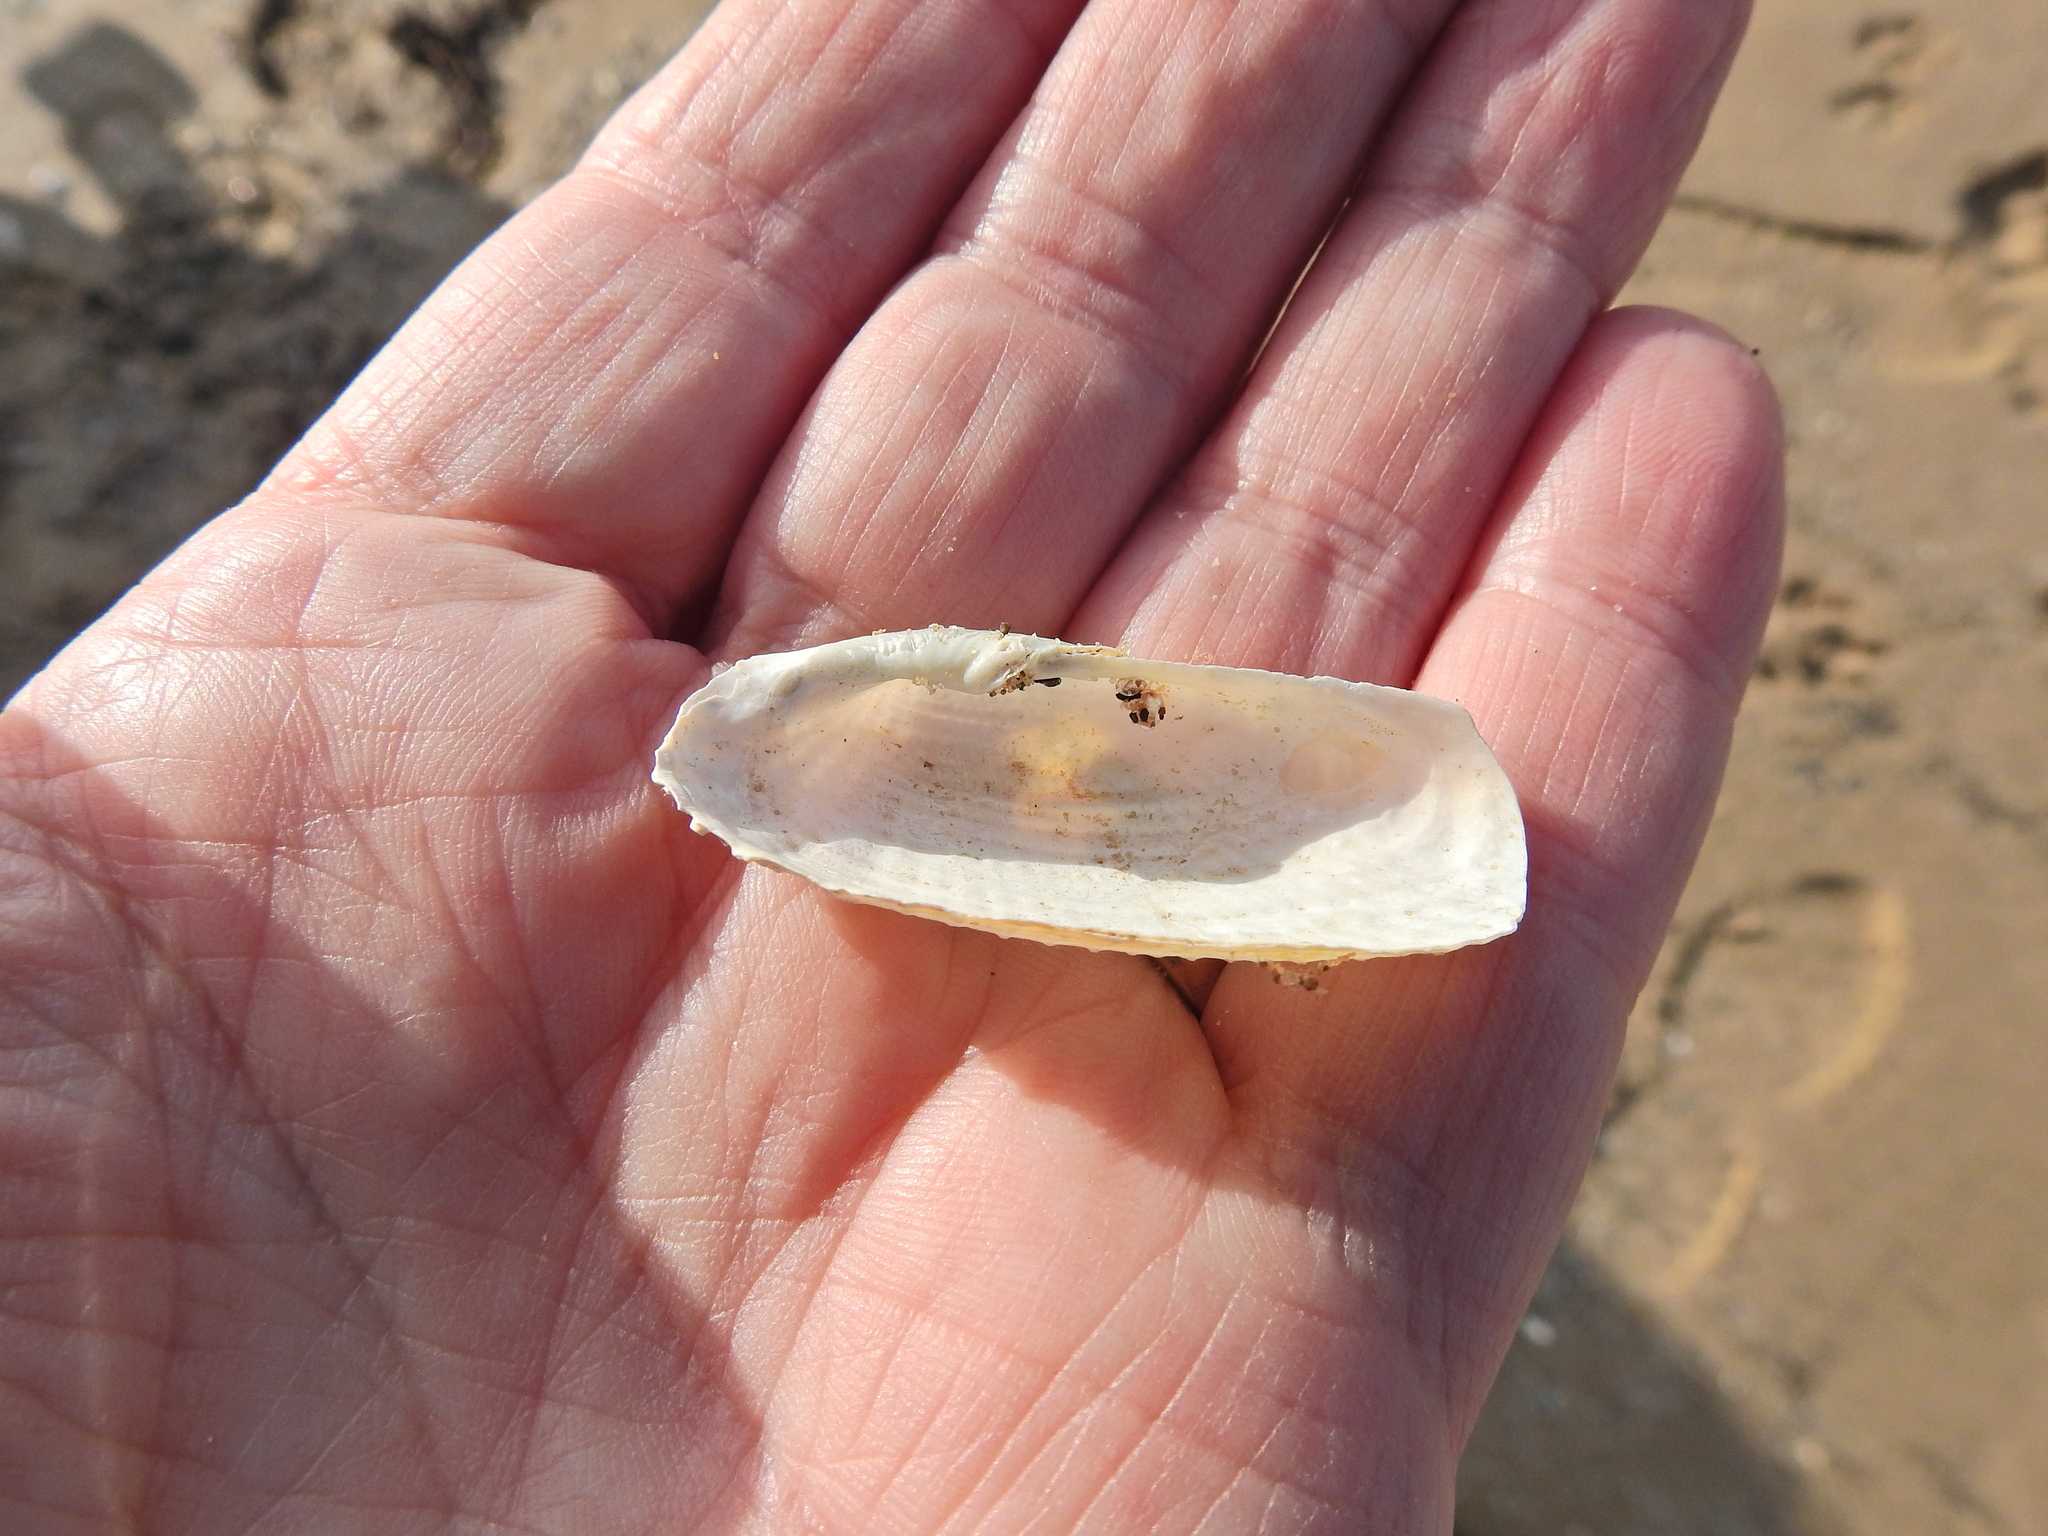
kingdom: Animalia
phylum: Mollusca
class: Bivalvia
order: Myida
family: Pholadidae
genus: Barnea
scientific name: Barnea candida
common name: White piddock
